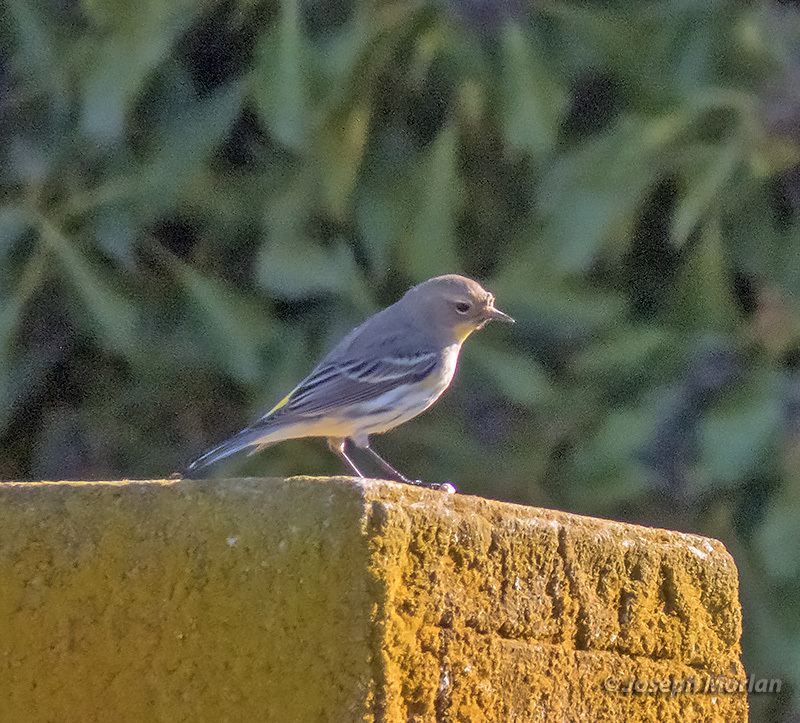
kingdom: Animalia
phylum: Chordata
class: Aves
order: Passeriformes
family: Parulidae
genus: Setophaga
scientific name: Setophaga coronata
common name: Myrtle warbler
